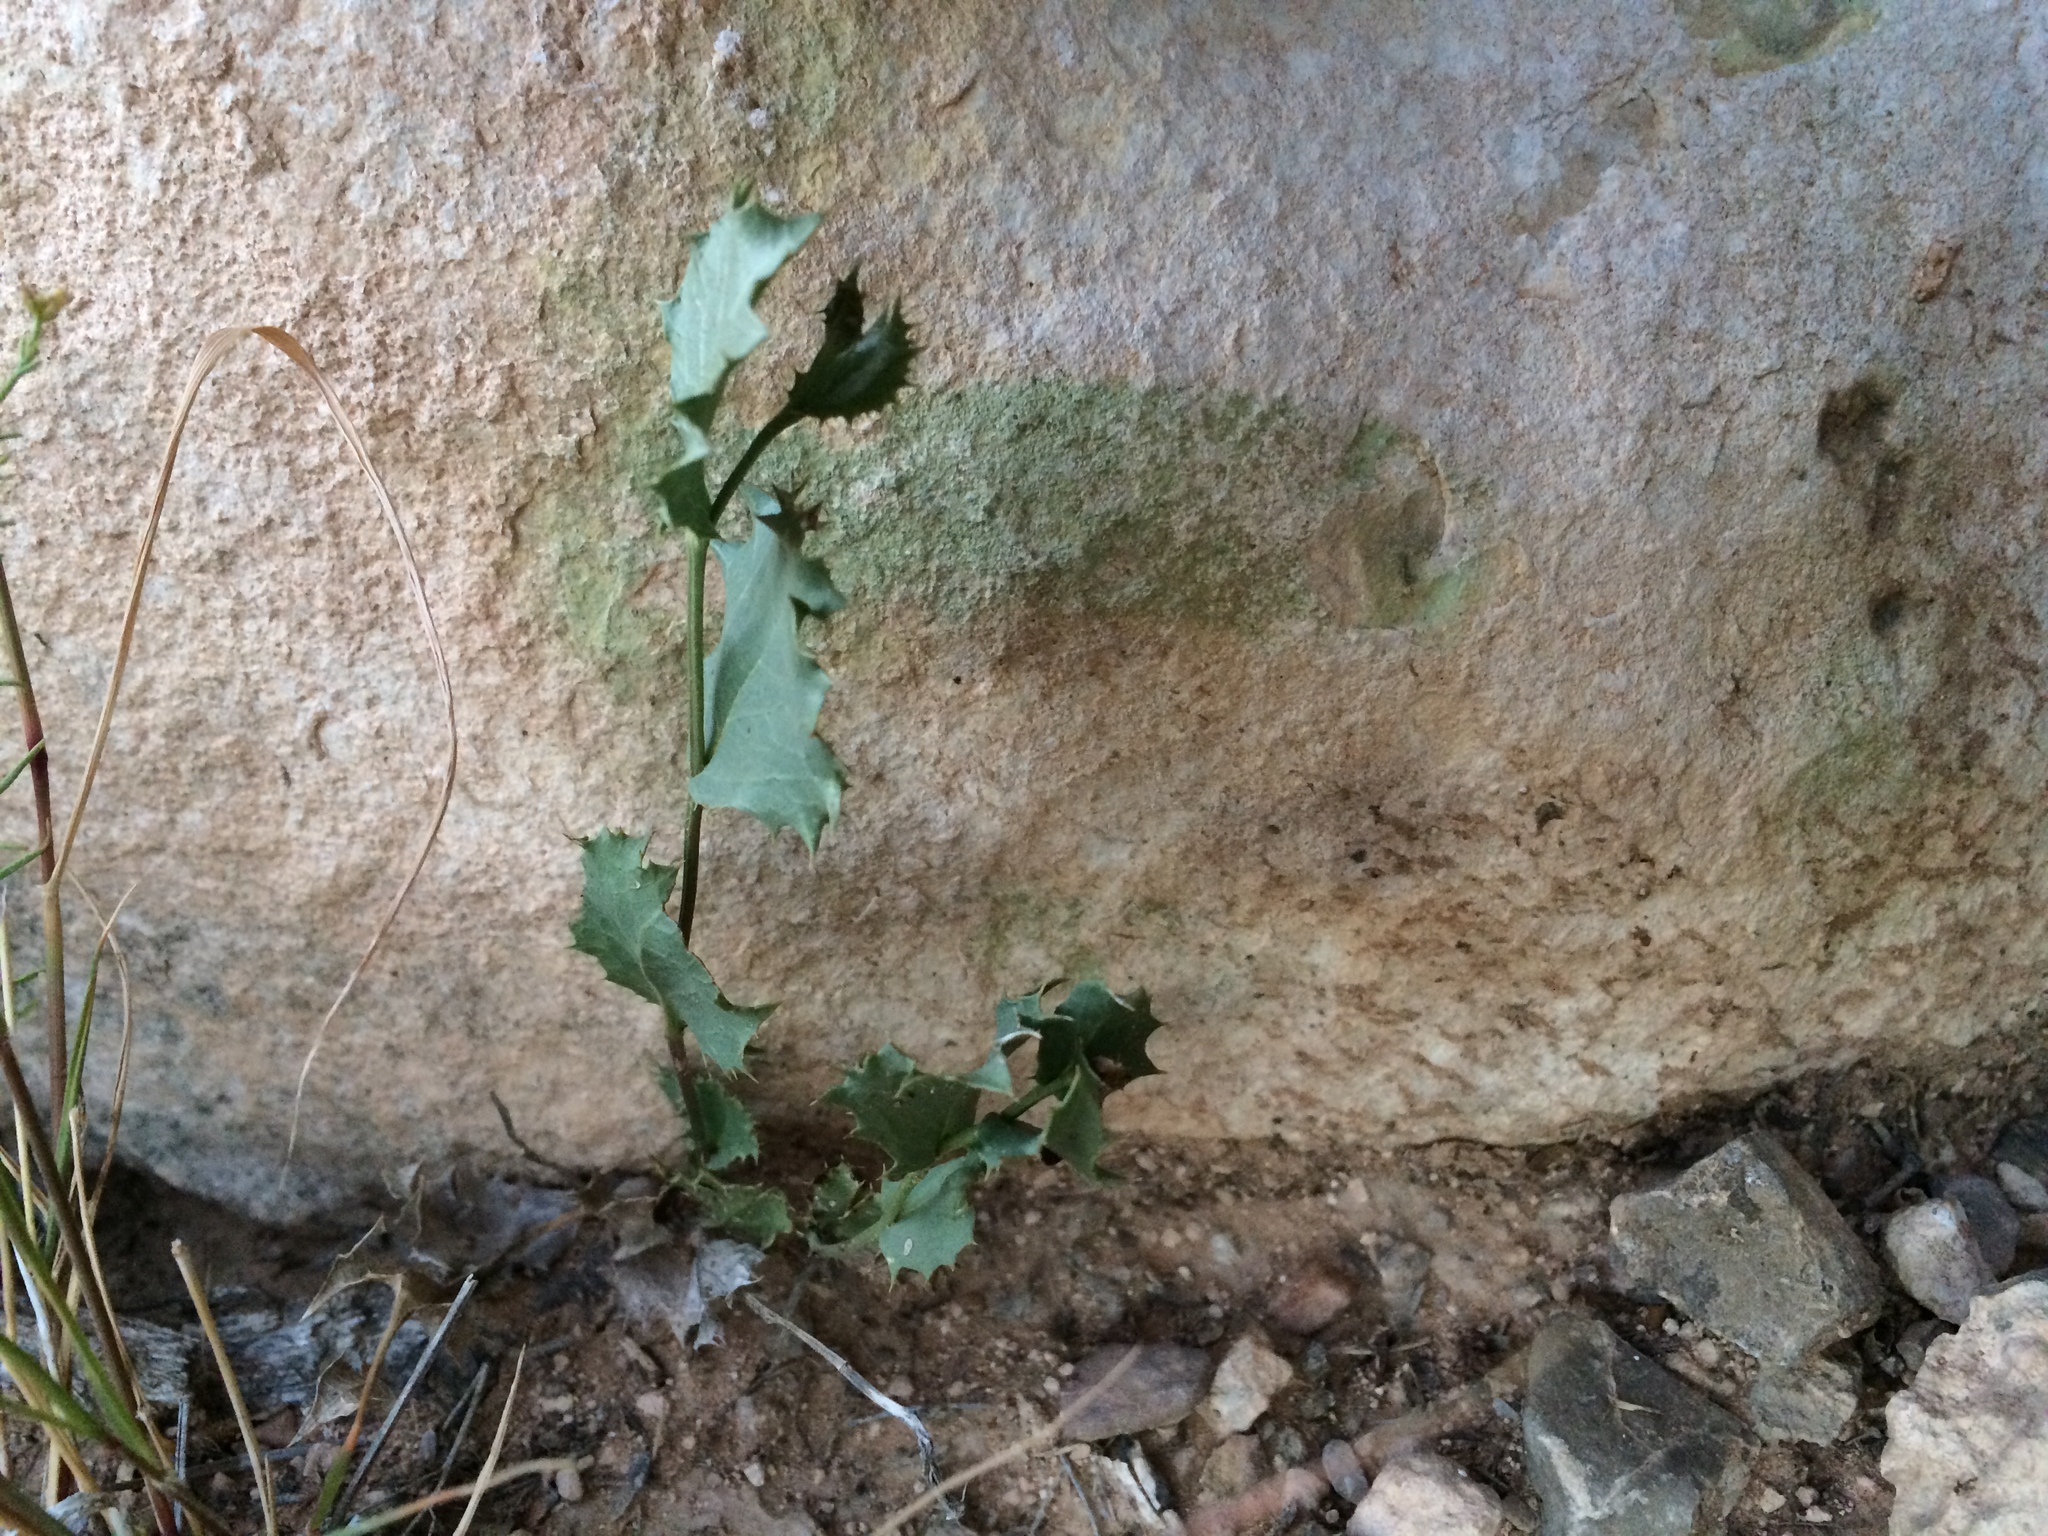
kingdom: Plantae
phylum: Tracheophyta
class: Magnoliopsida
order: Asterales
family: Asteraceae
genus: Acourtia
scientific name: Acourtia nana
